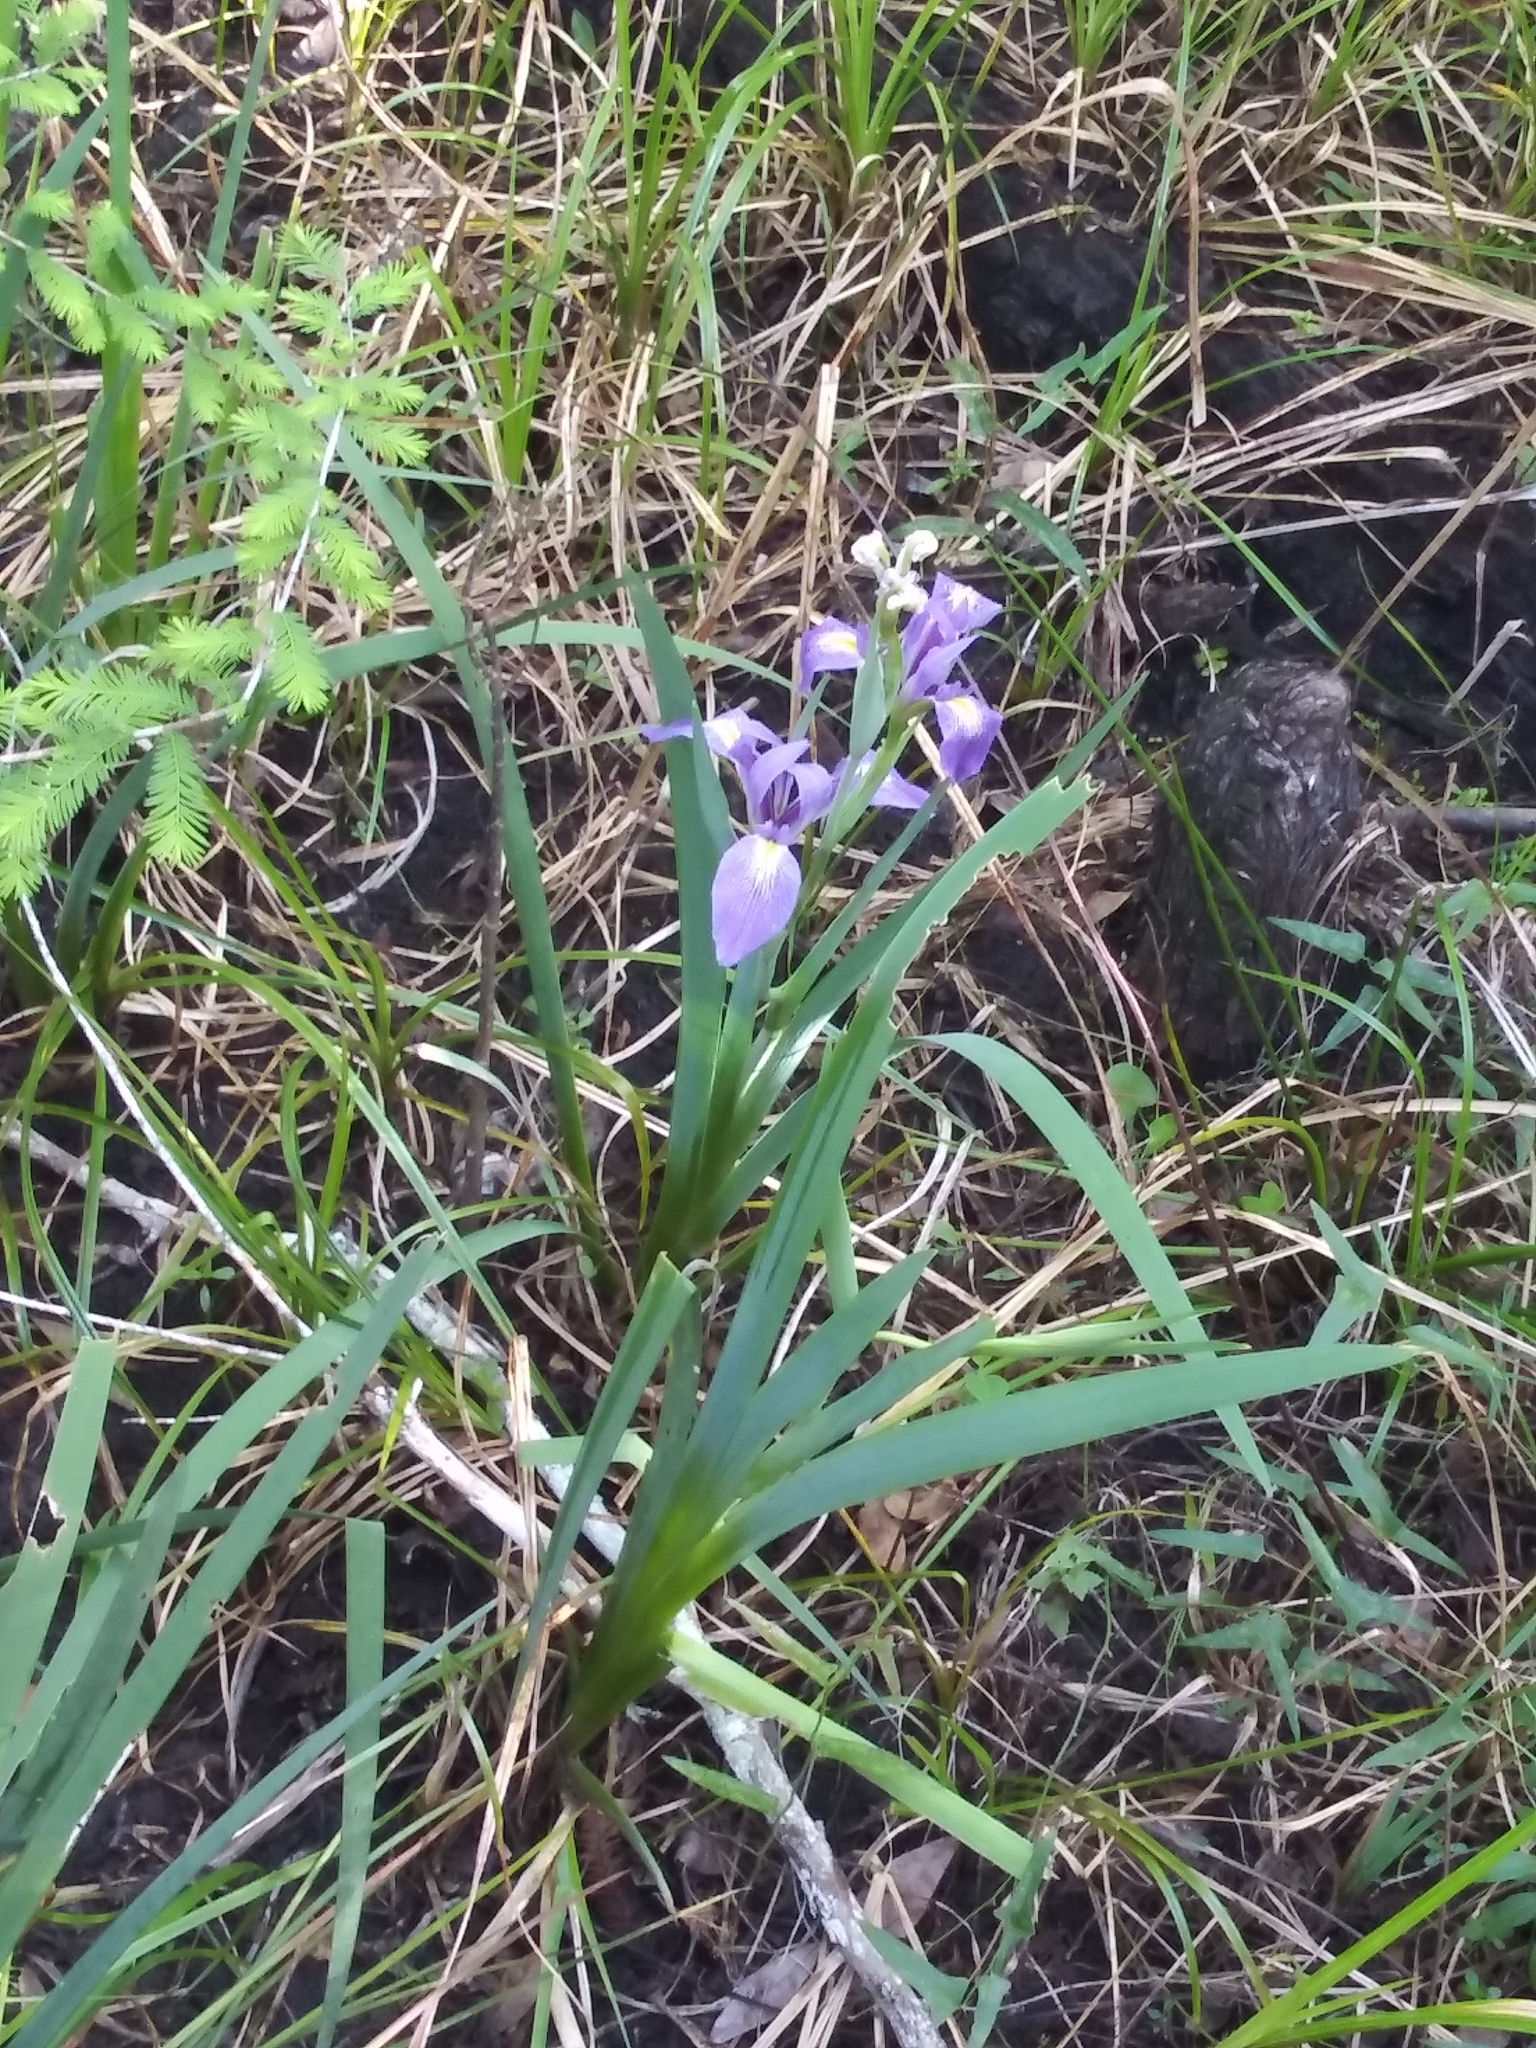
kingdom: Plantae
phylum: Tracheophyta
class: Liliopsida
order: Asparagales
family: Iridaceae
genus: Iris
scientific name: Iris savannarum
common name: Prairie iris
